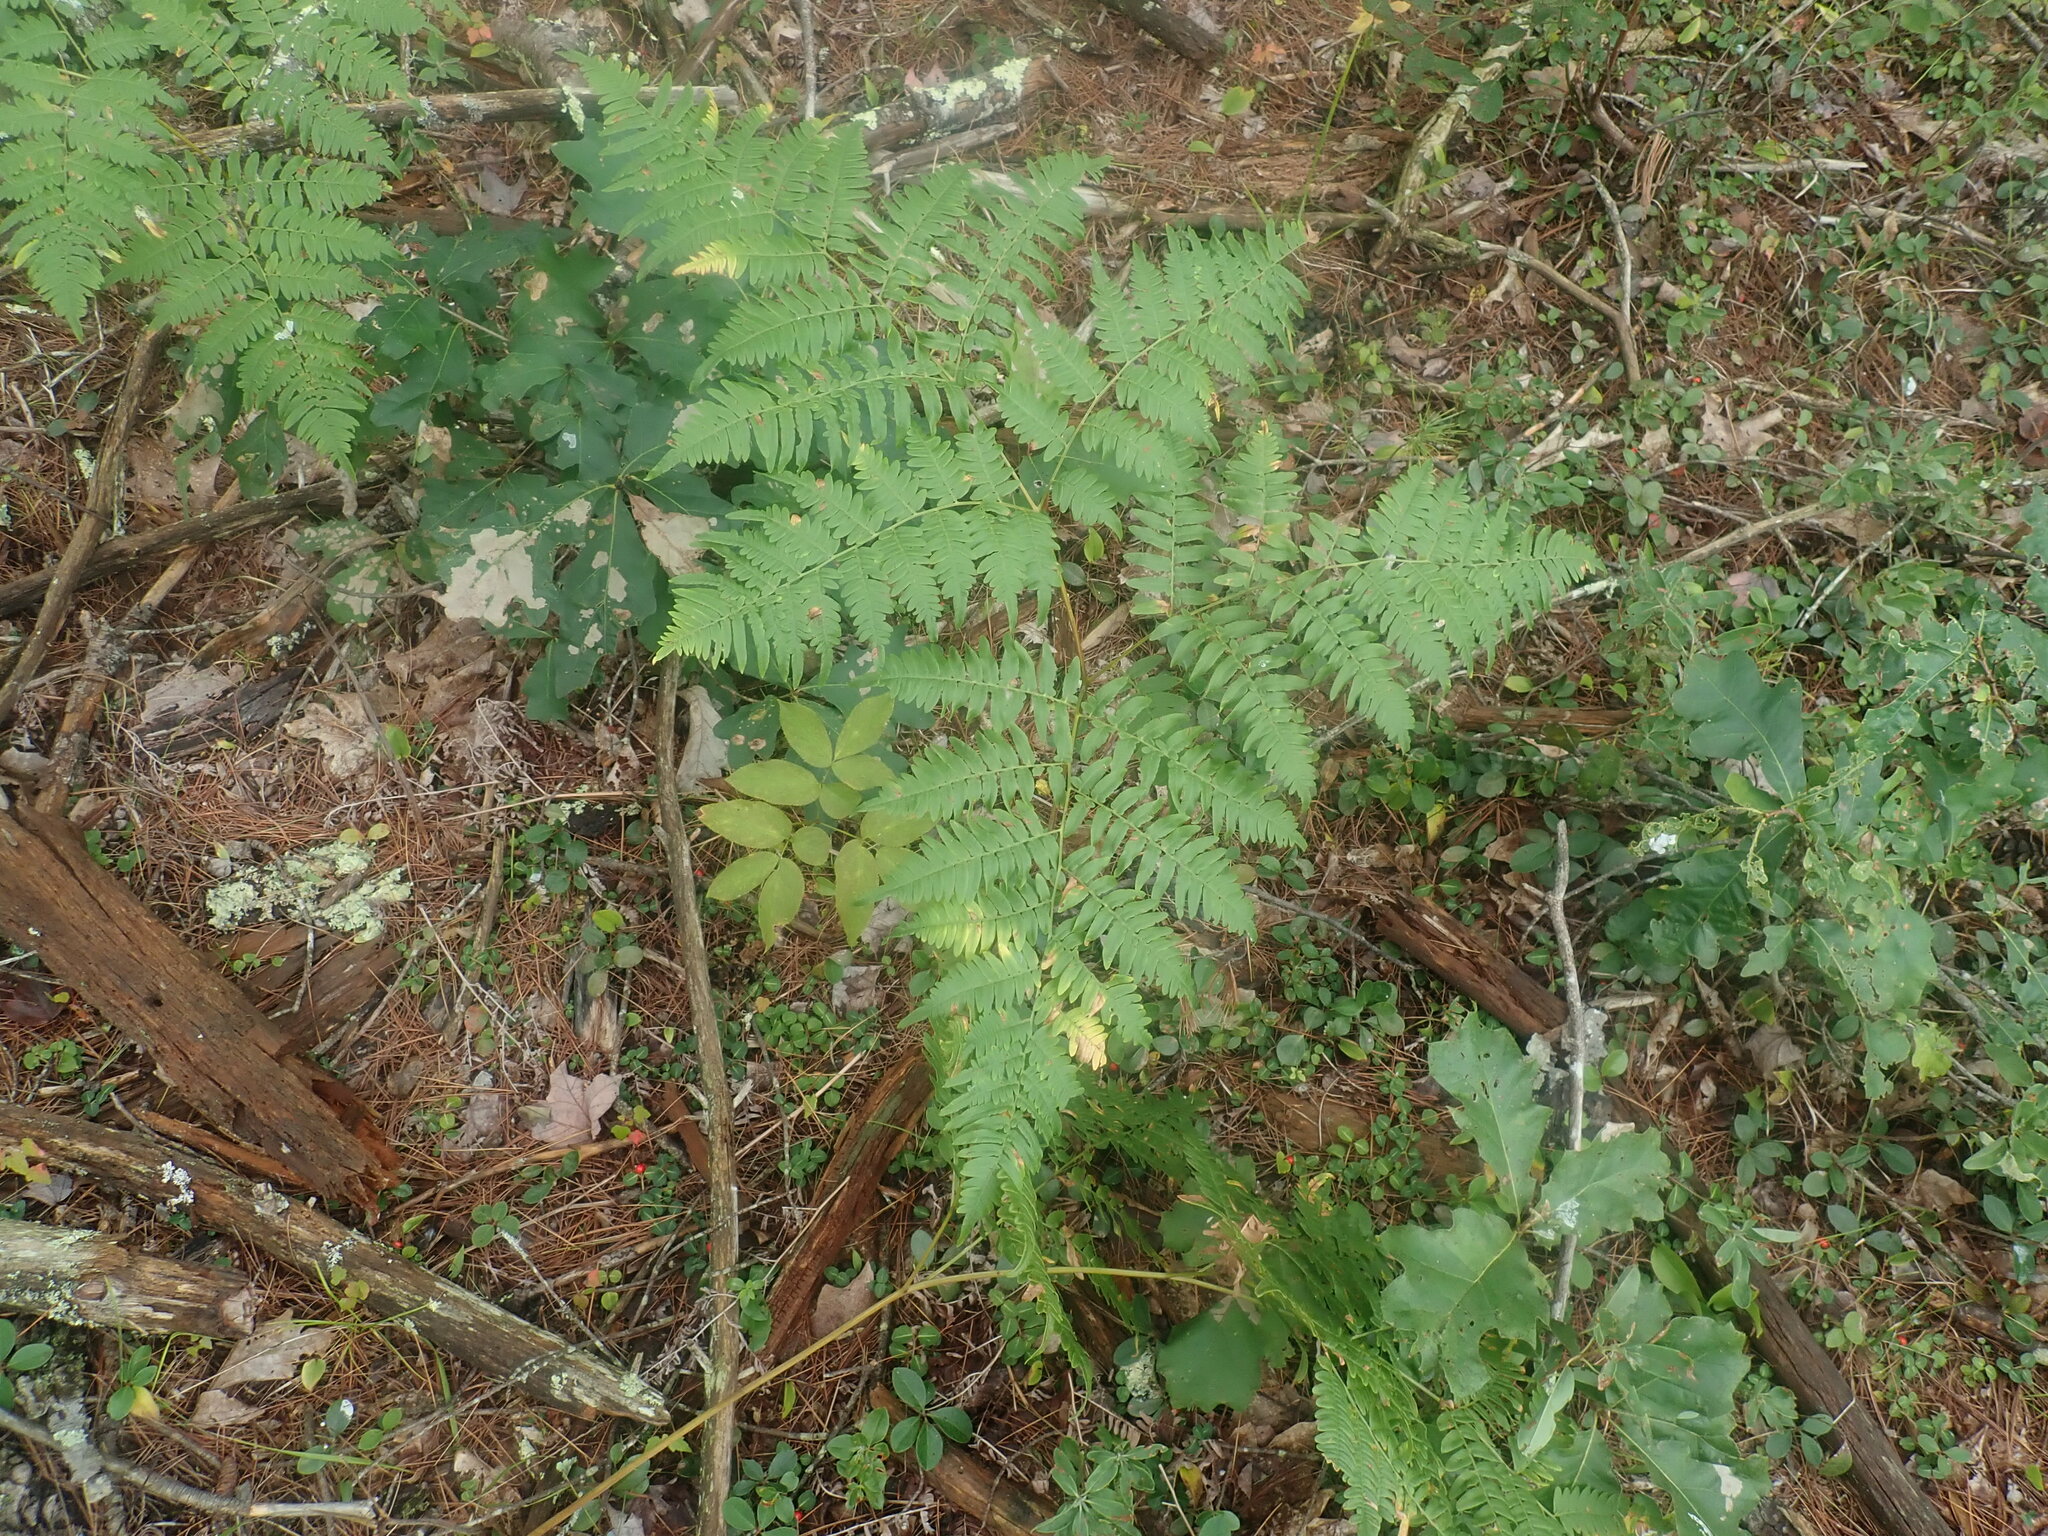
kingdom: Plantae
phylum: Tracheophyta
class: Polypodiopsida
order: Polypodiales
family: Dennstaedtiaceae
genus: Pteridium
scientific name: Pteridium aquilinum
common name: Bracken
